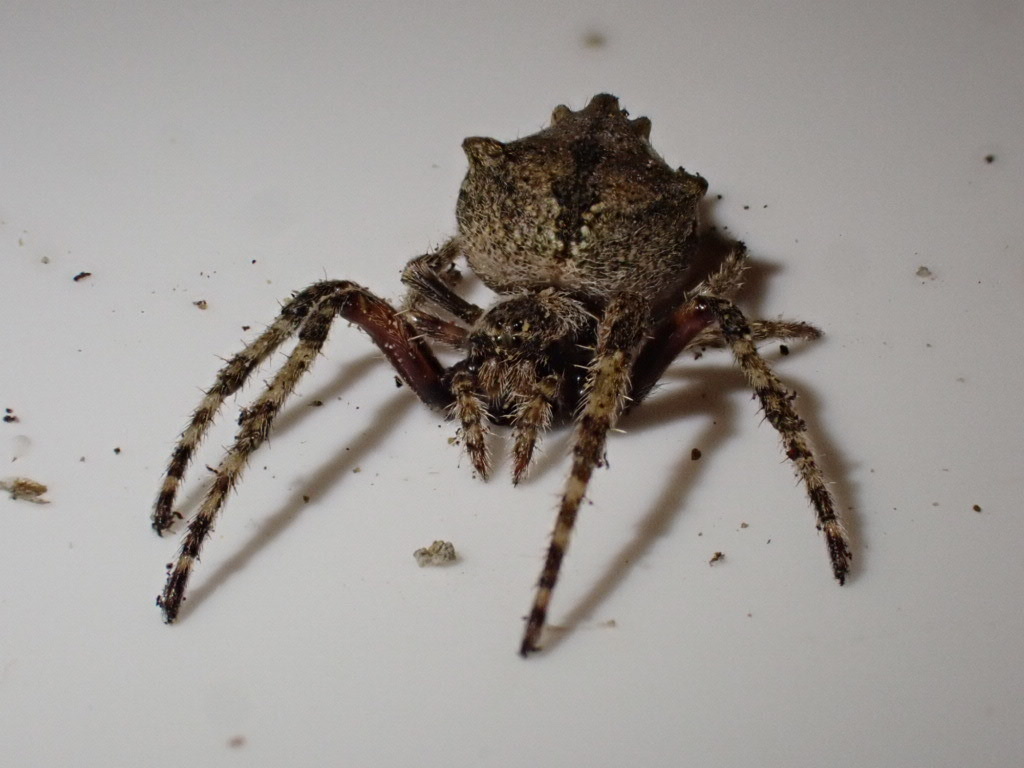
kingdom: Animalia
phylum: Arthropoda
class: Arachnida
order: Araneae
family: Araneidae
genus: Eriophora
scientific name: Eriophora pustulosa
